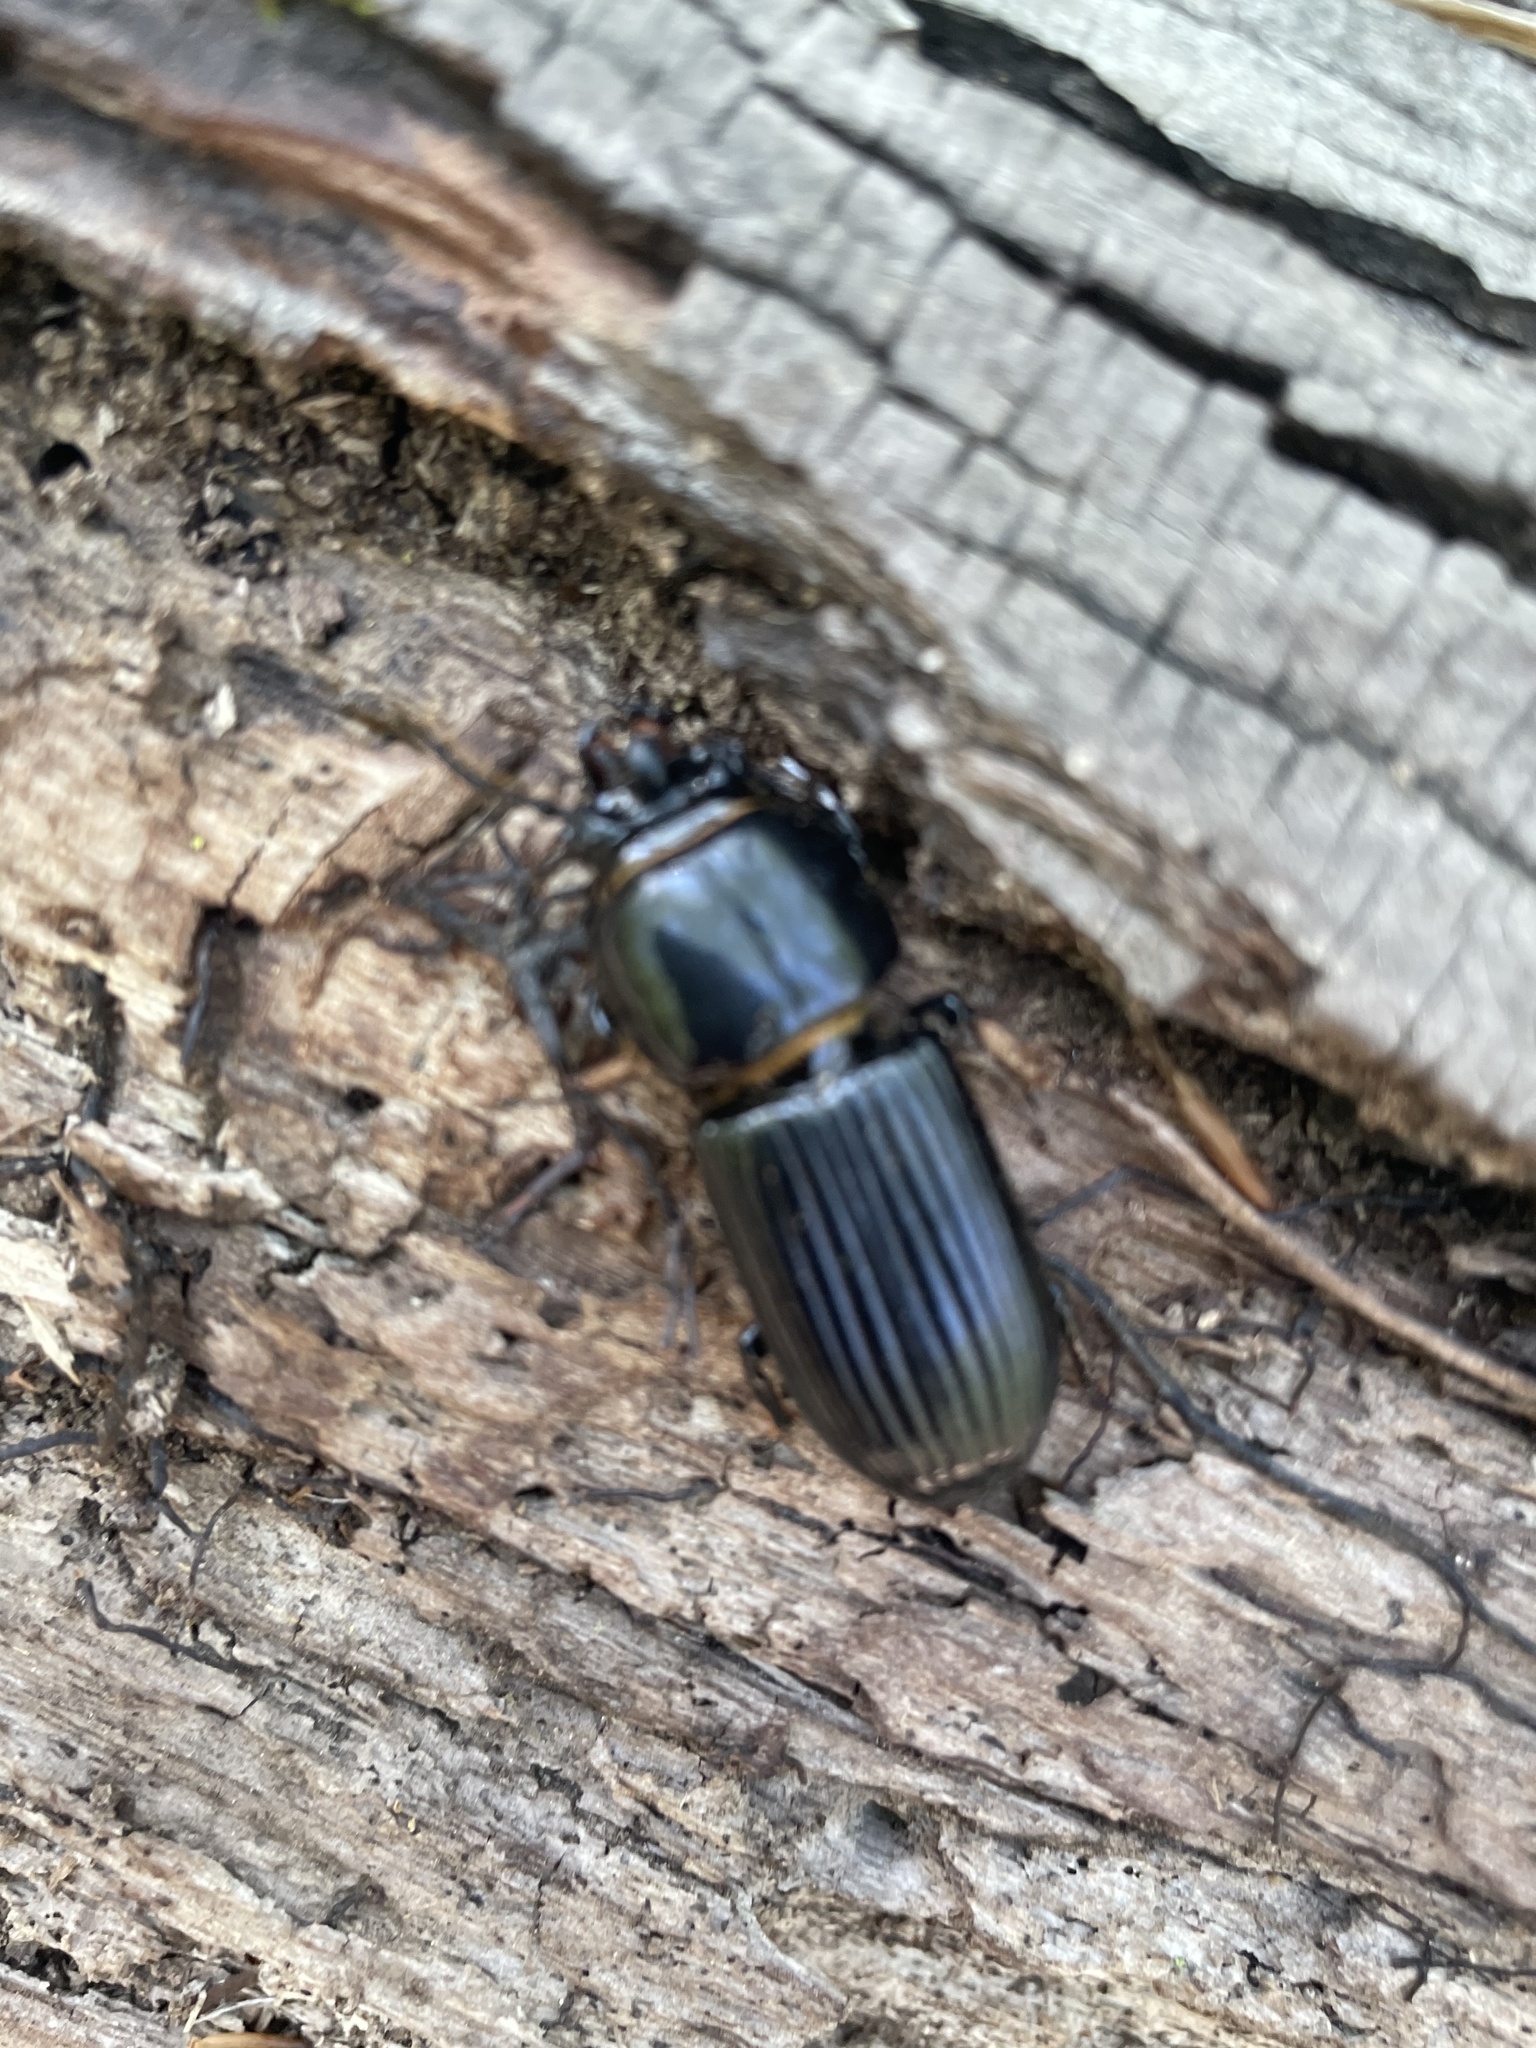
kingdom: Animalia
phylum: Arthropoda
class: Insecta
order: Coleoptera
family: Passalidae
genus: Odontotaenius
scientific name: Odontotaenius disjunctus
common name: Patent leather beetle
